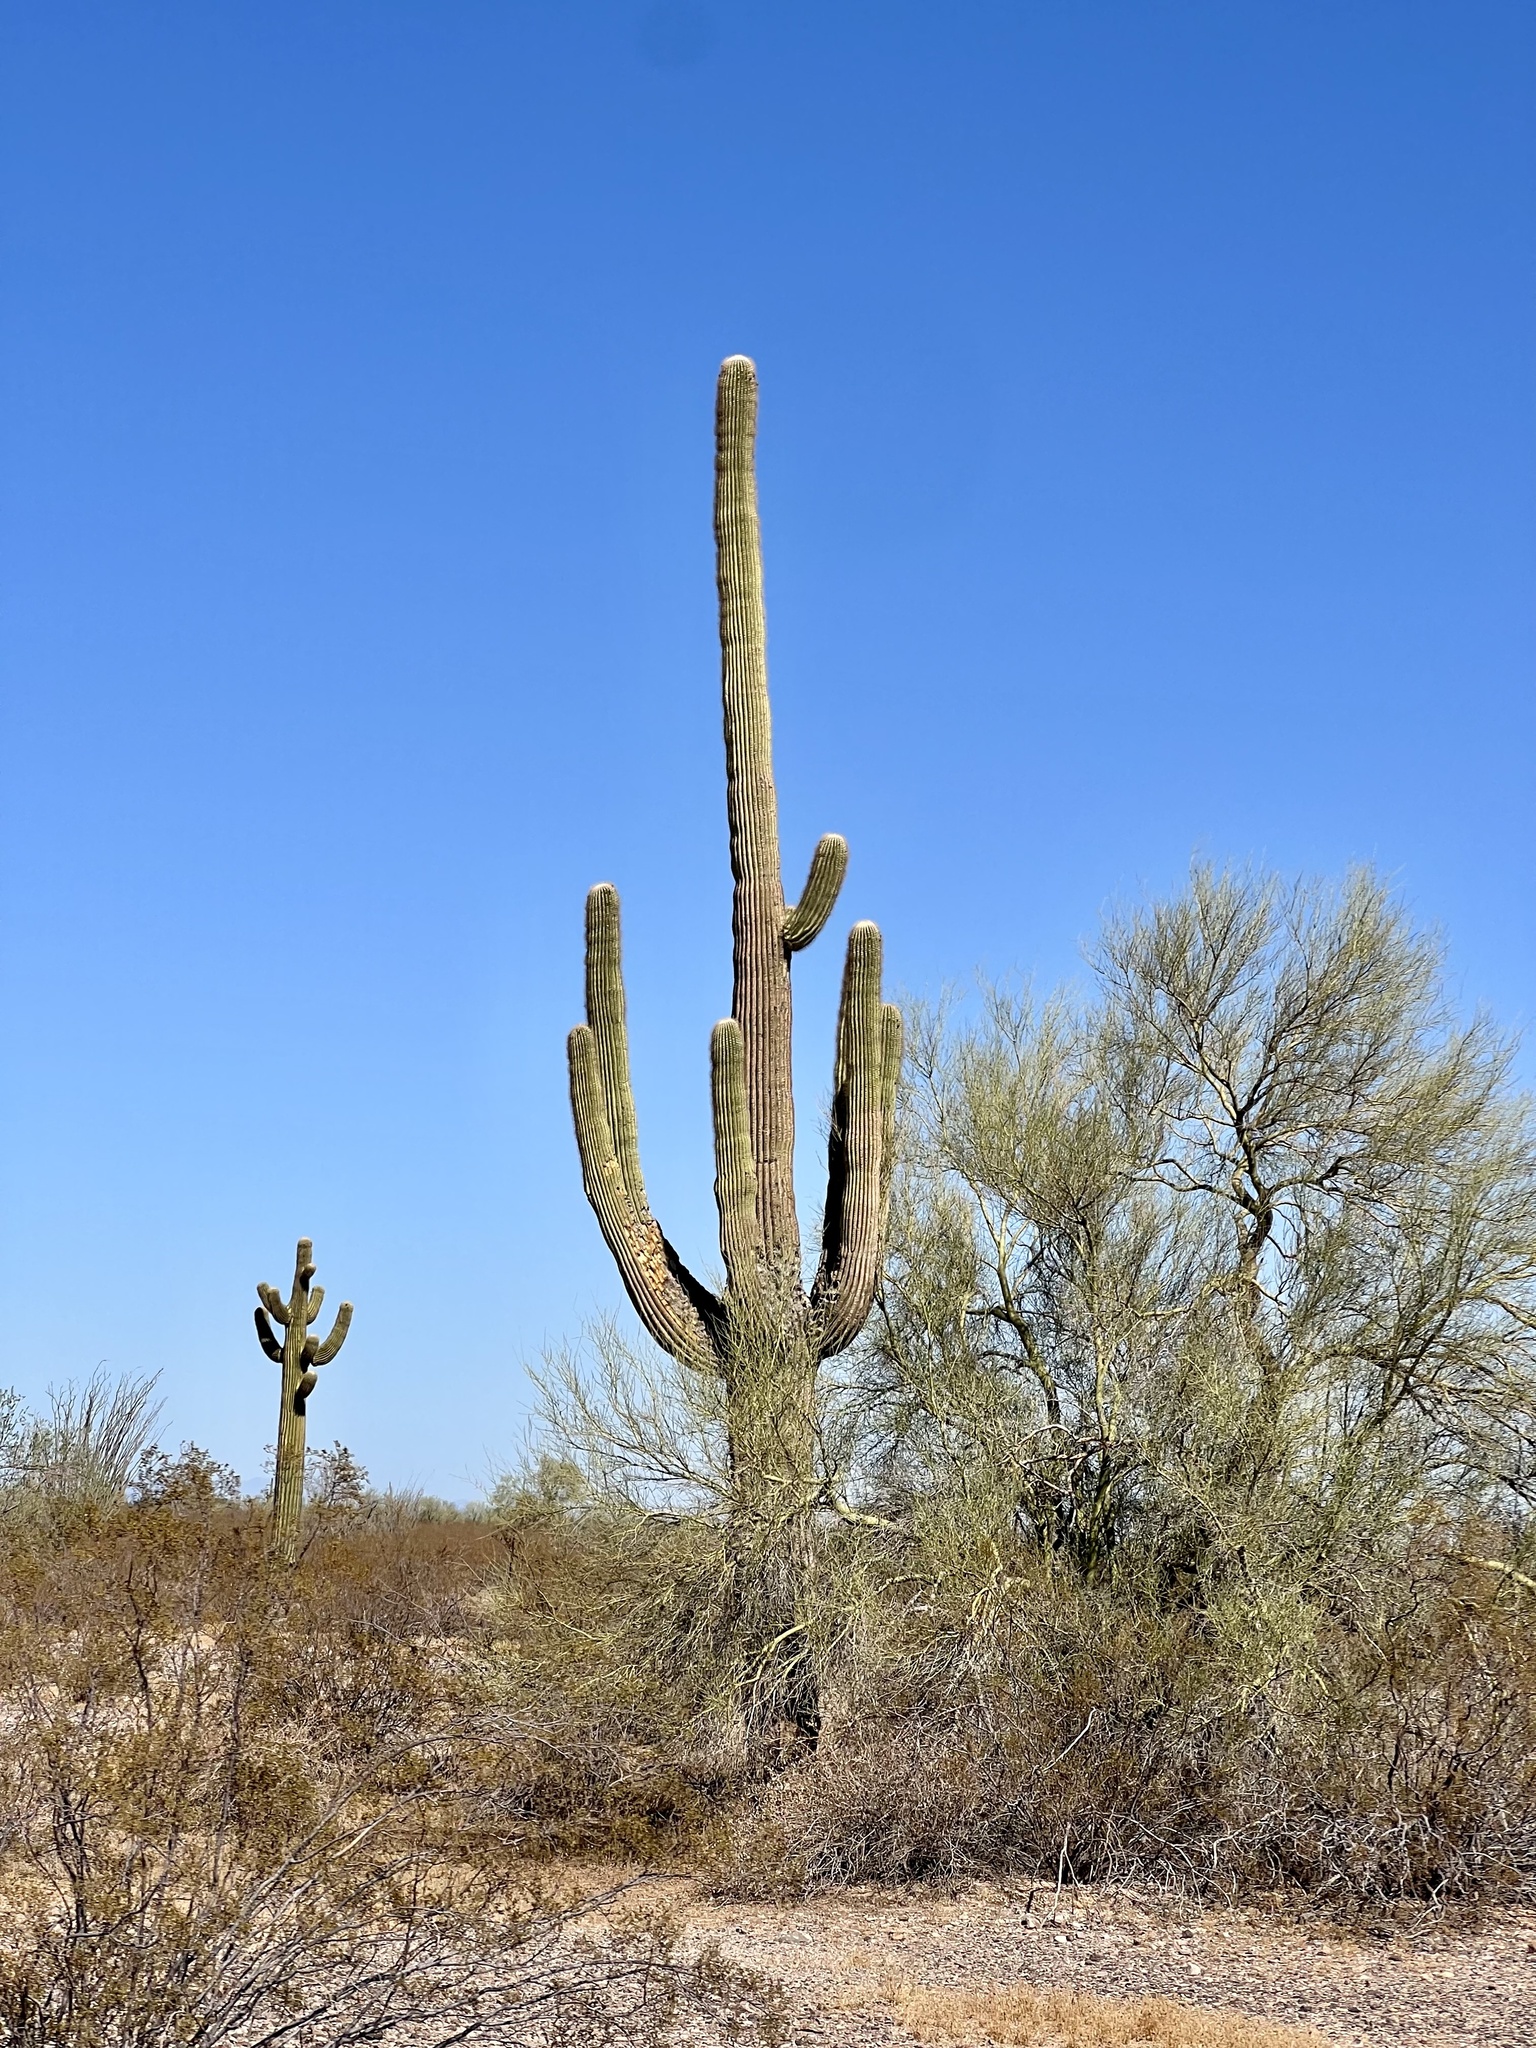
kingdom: Plantae
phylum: Tracheophyta
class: Magnoliopsida
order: Caryophyllales
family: Cactaceae
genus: Carnegiea
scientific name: Carnegiea gigantea
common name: Saguaro
